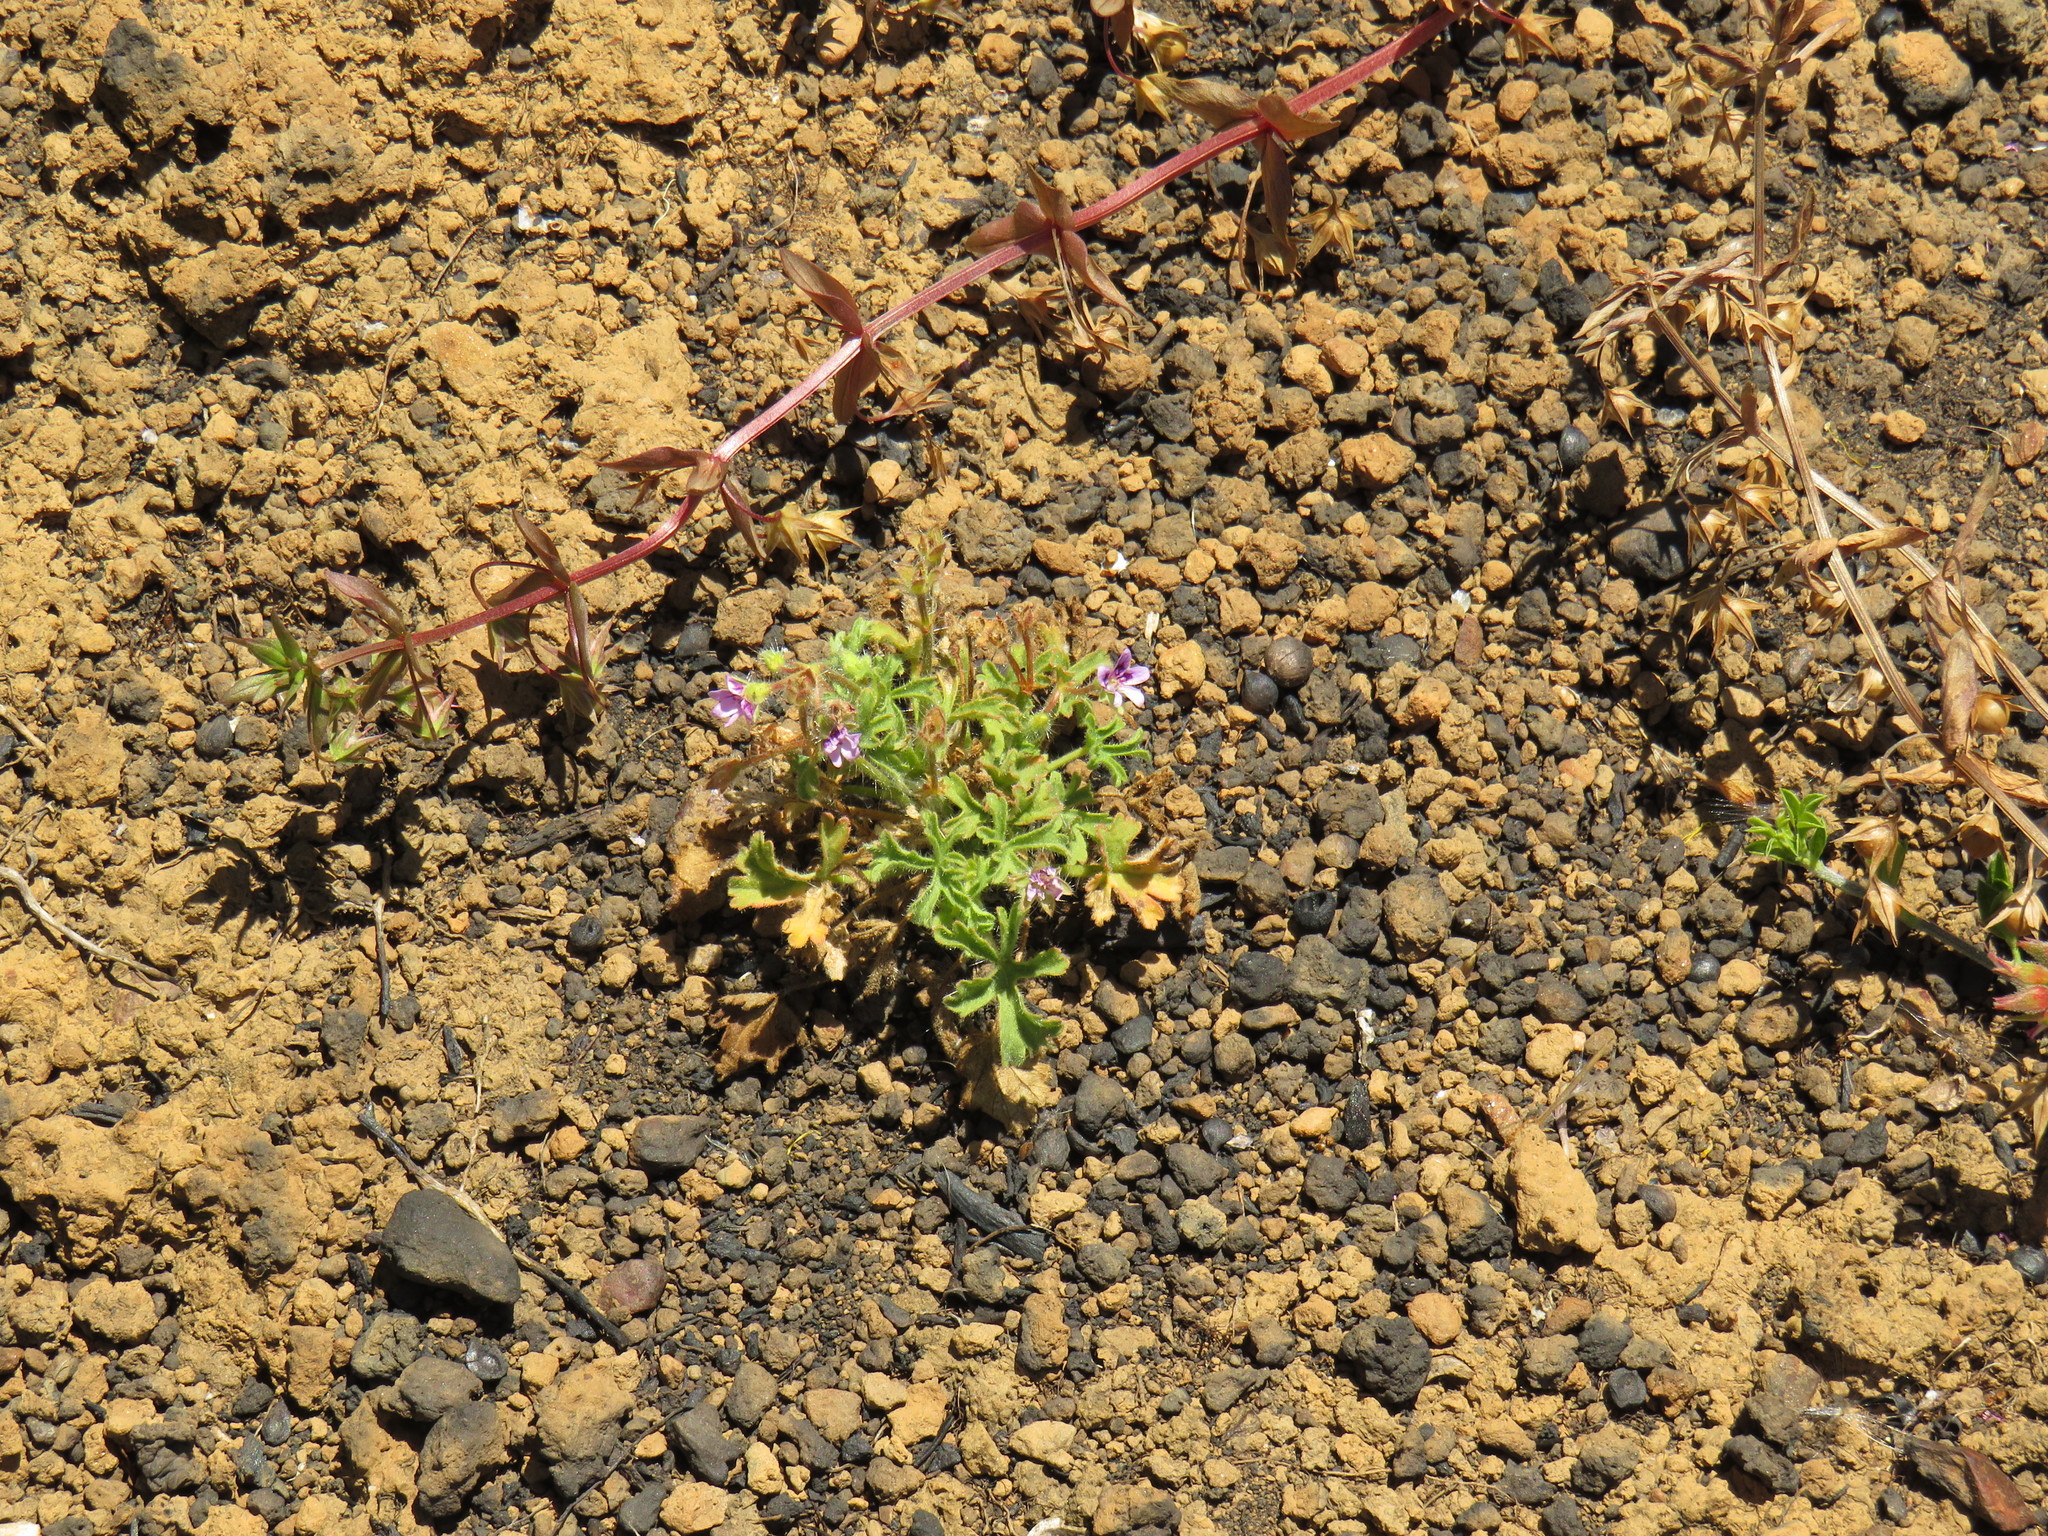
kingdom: Plantae
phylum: Tracheophyta
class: Magnoliopsida
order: Geraniales
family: Geraniaceae
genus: Pelargonium
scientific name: Pelargonium columbinum
